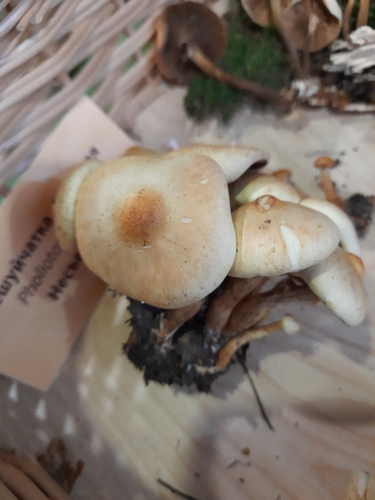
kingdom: Fungi
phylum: Basidiomycota
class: Agaricomycetes
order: Agaricales
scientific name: Agaricales
